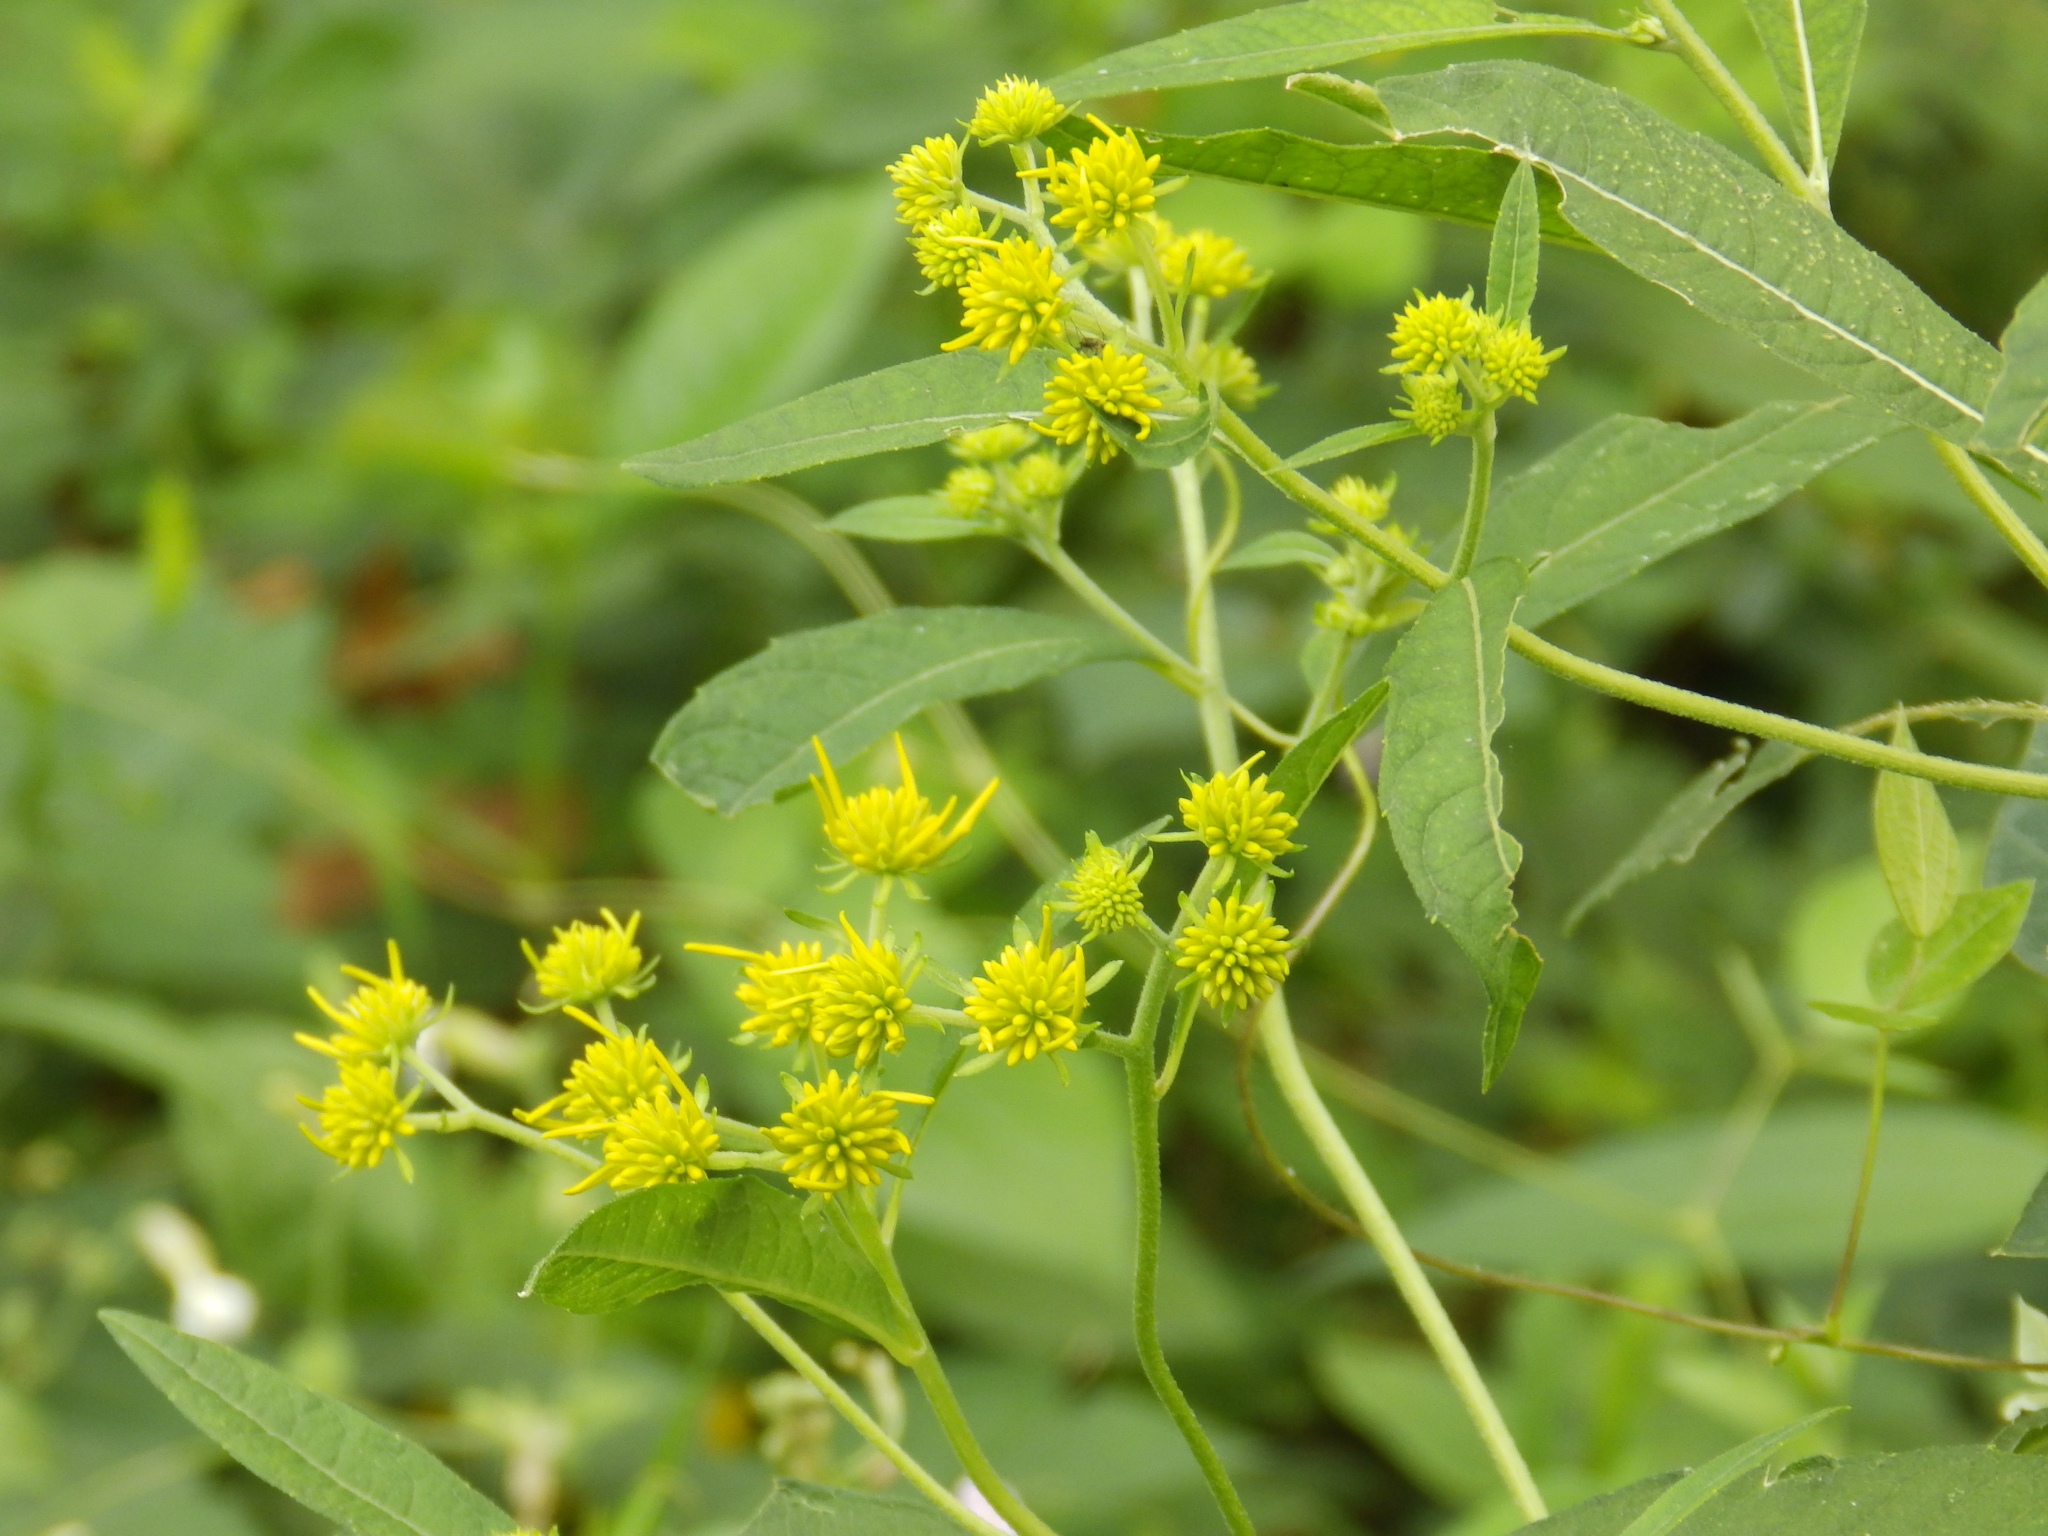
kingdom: Plantae
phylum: Tracheophyta
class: Magnoliopsida
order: Asterales
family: Asteraceae
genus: Verbesina
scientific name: Verbesina alternifolia
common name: Wingstem
